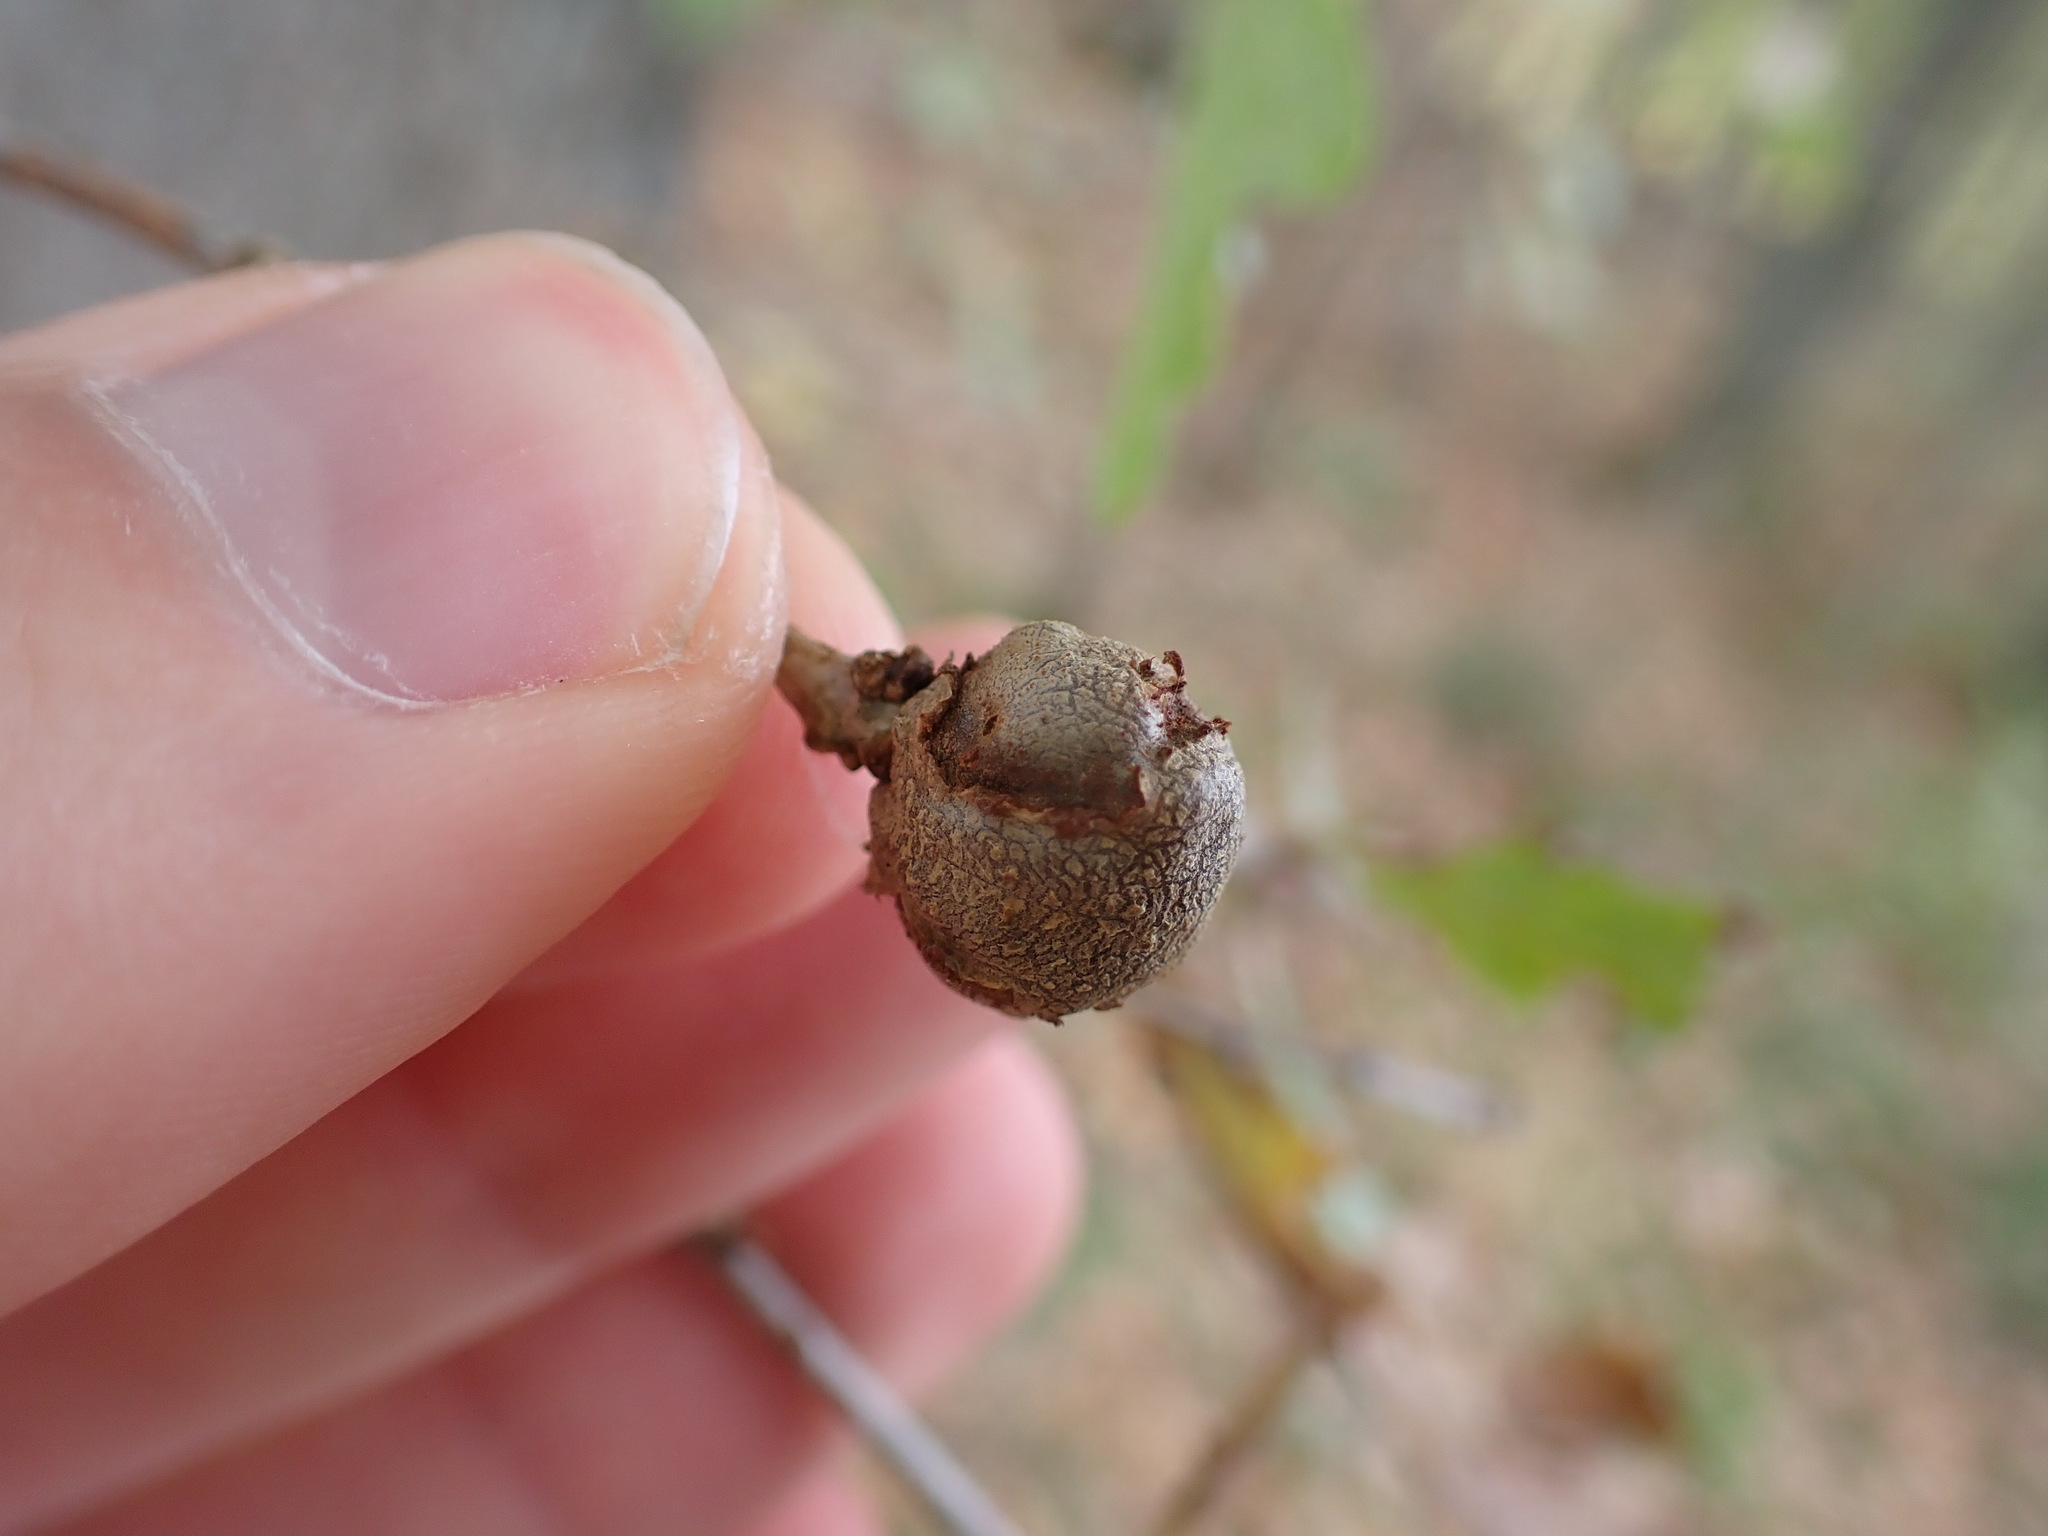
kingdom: Animalia
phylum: Arthropoda
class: Insecta
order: Hymenoptera
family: Cynipidae
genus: Andricus
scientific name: Andricus lignicolus
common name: Cola-nut gall
